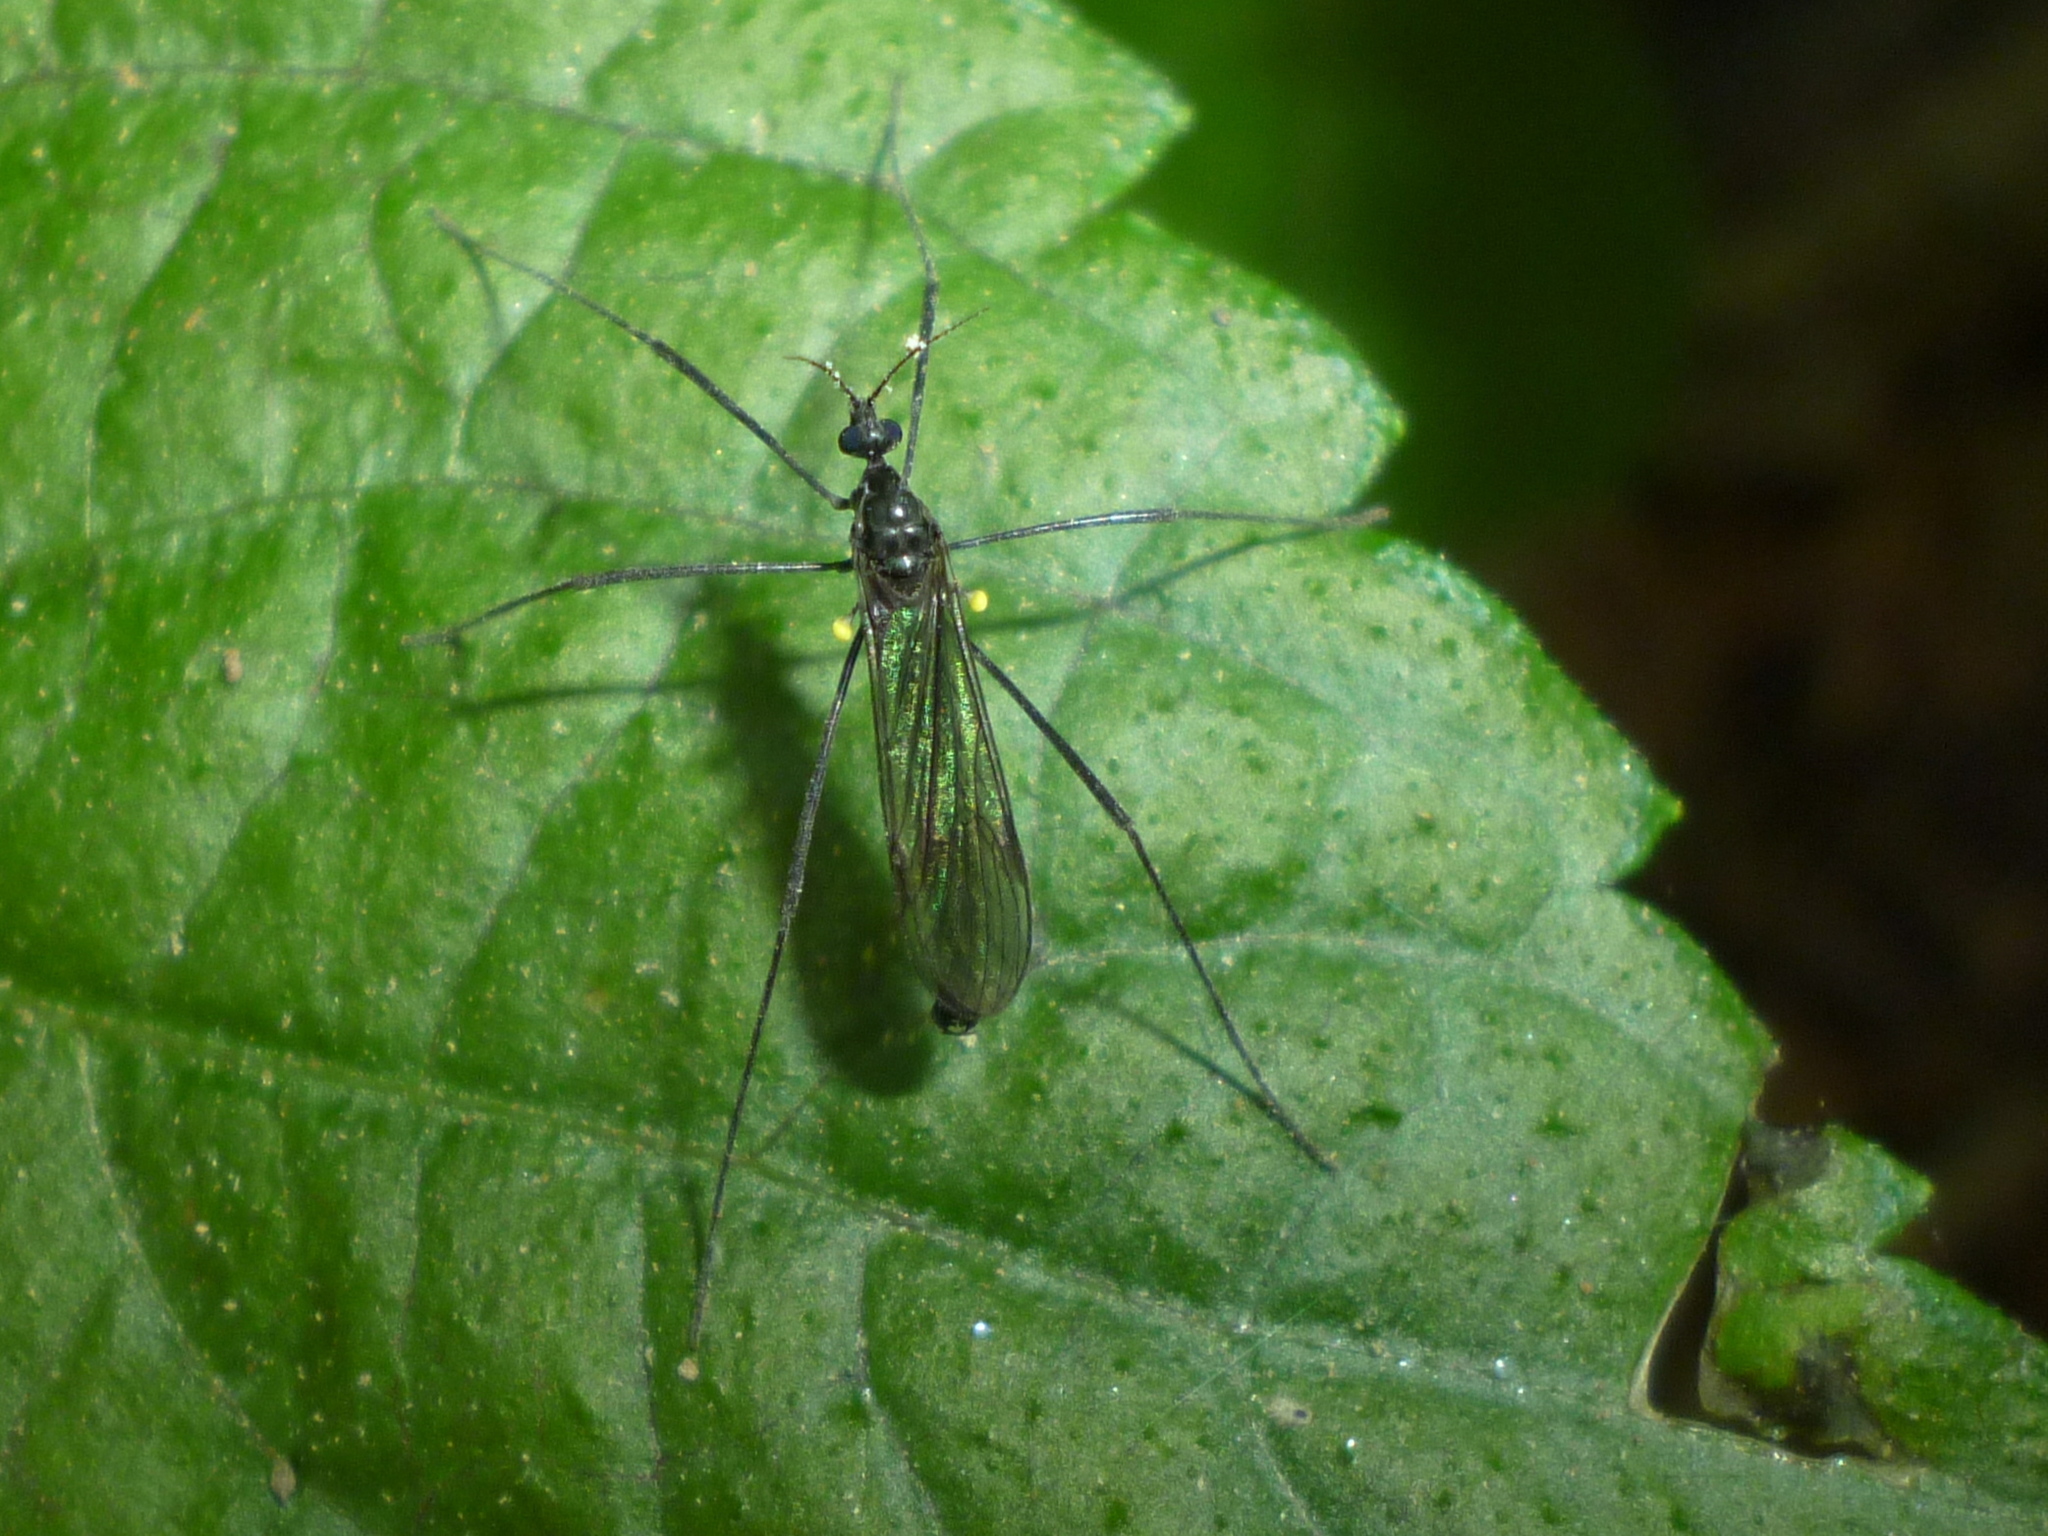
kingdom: Animalia
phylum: Arthropoda
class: Insecta
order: Diptera
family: Limoniidae
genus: Gnophomyia
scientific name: Gnophomyia tristissima
